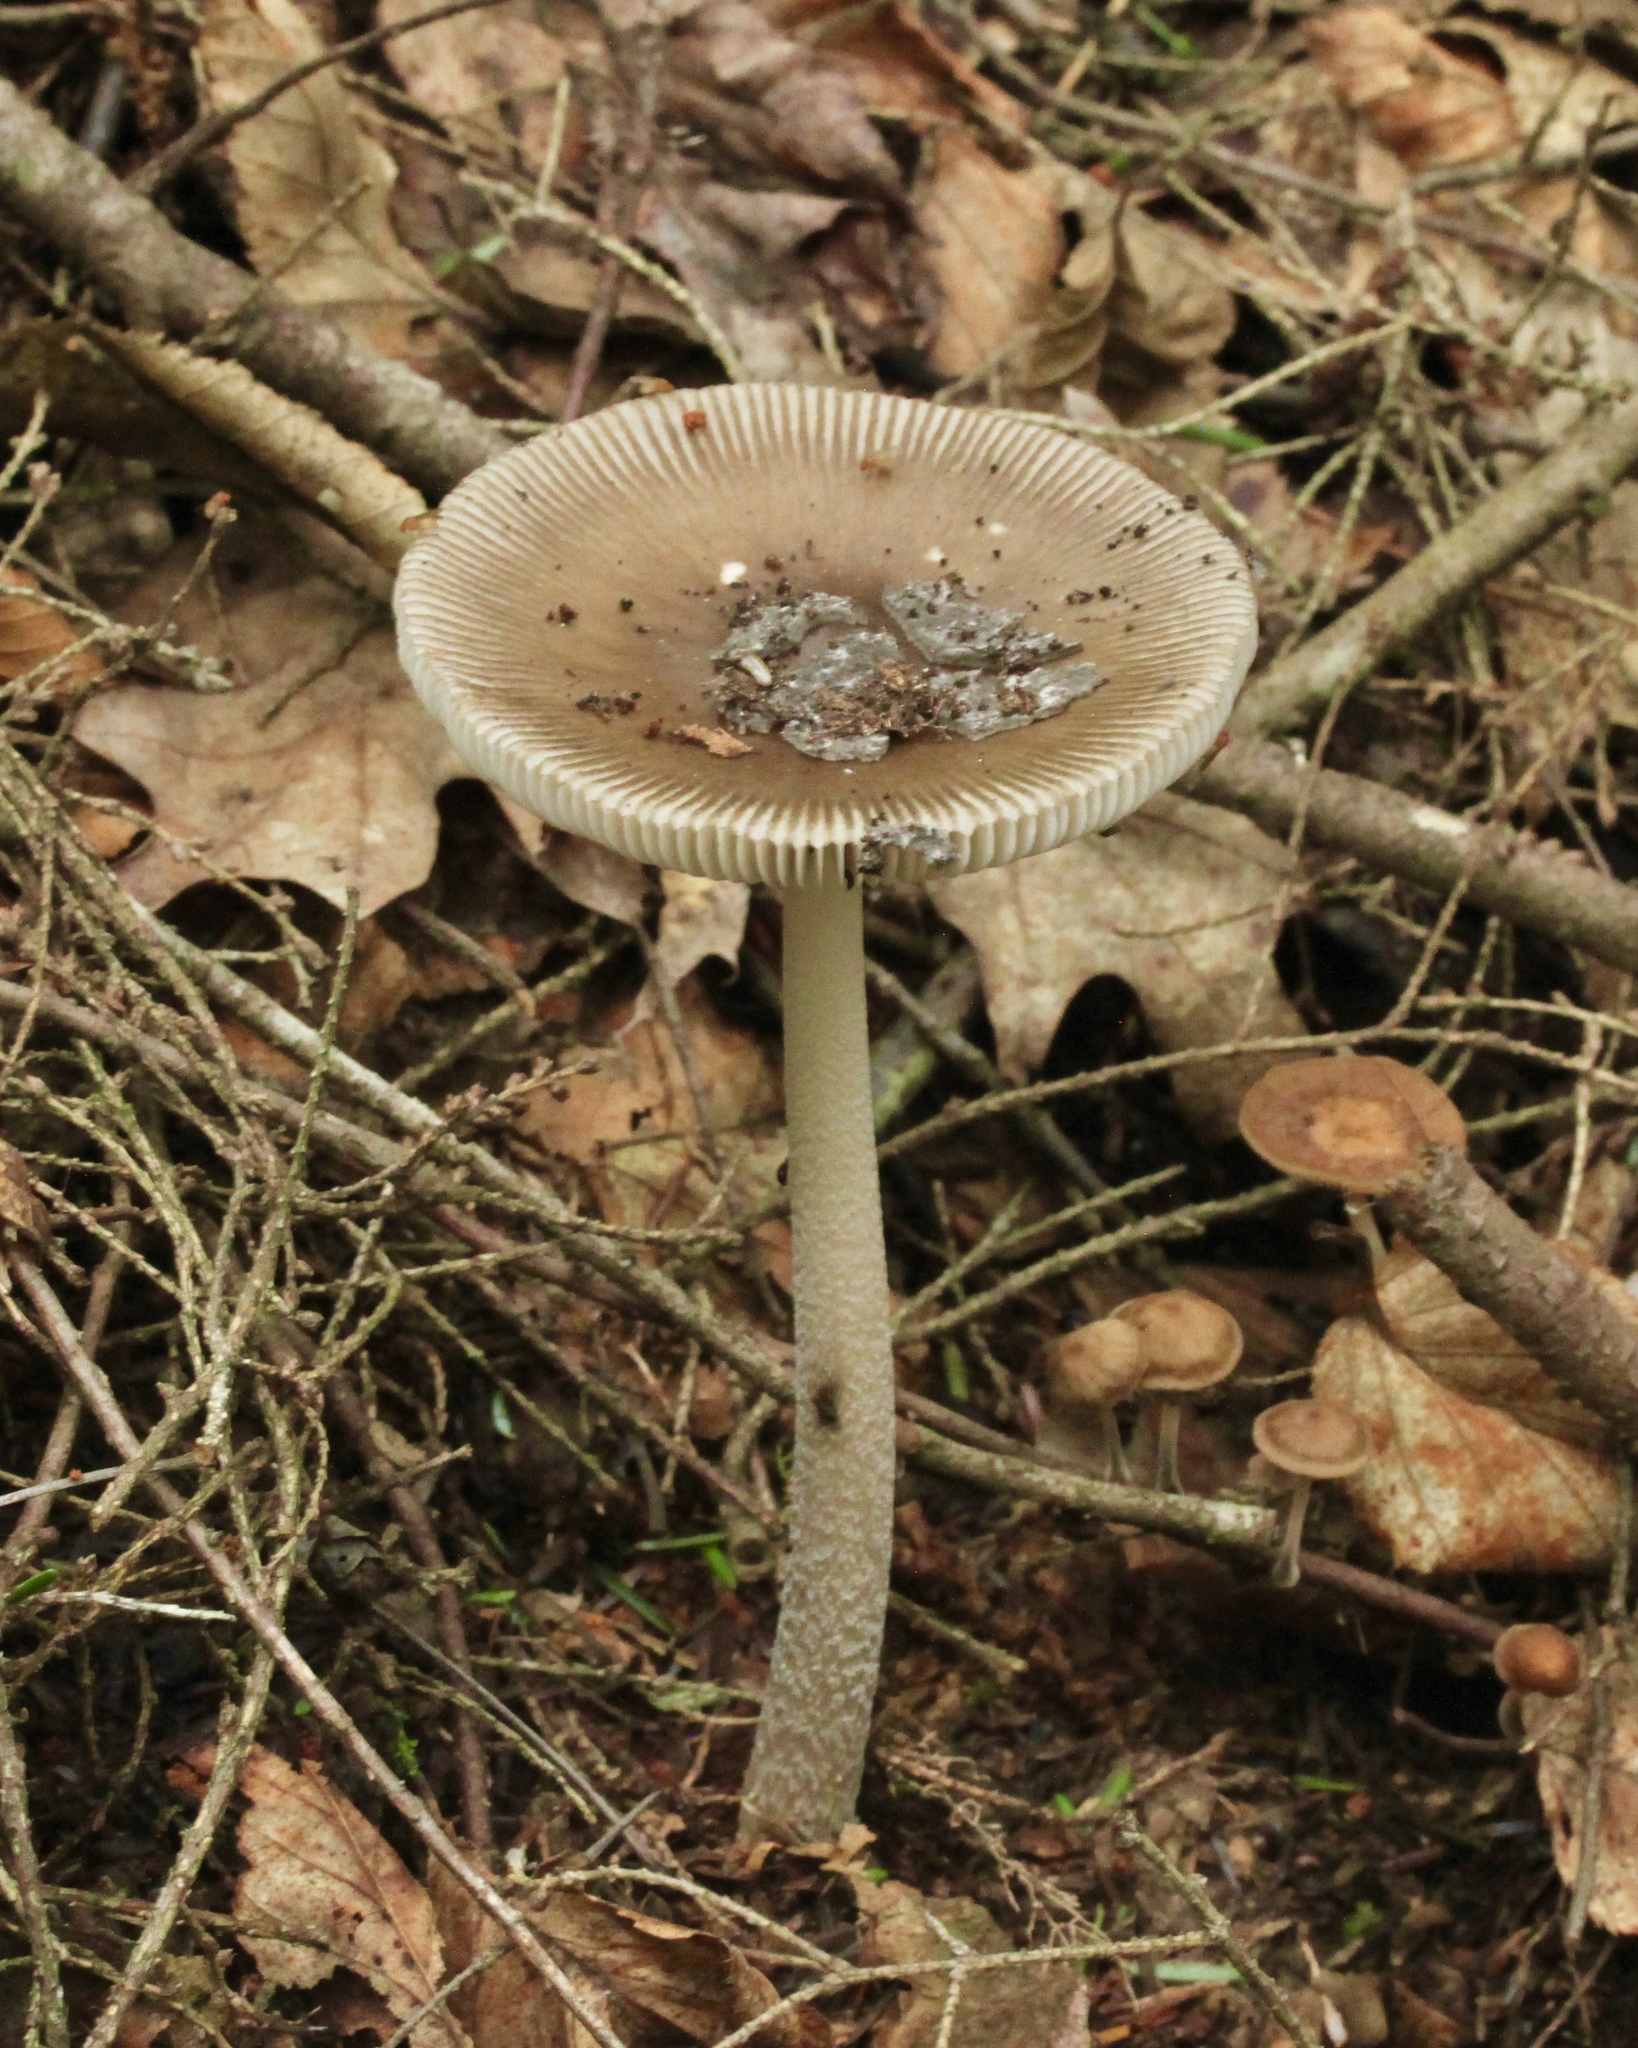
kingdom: Fungi
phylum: Basidiomycota
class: Agaricomycetes
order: Agaricales
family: Amanitaceae
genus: Amanita
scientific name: Amanita rhacopus
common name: Shaggy legged ringless amanita
